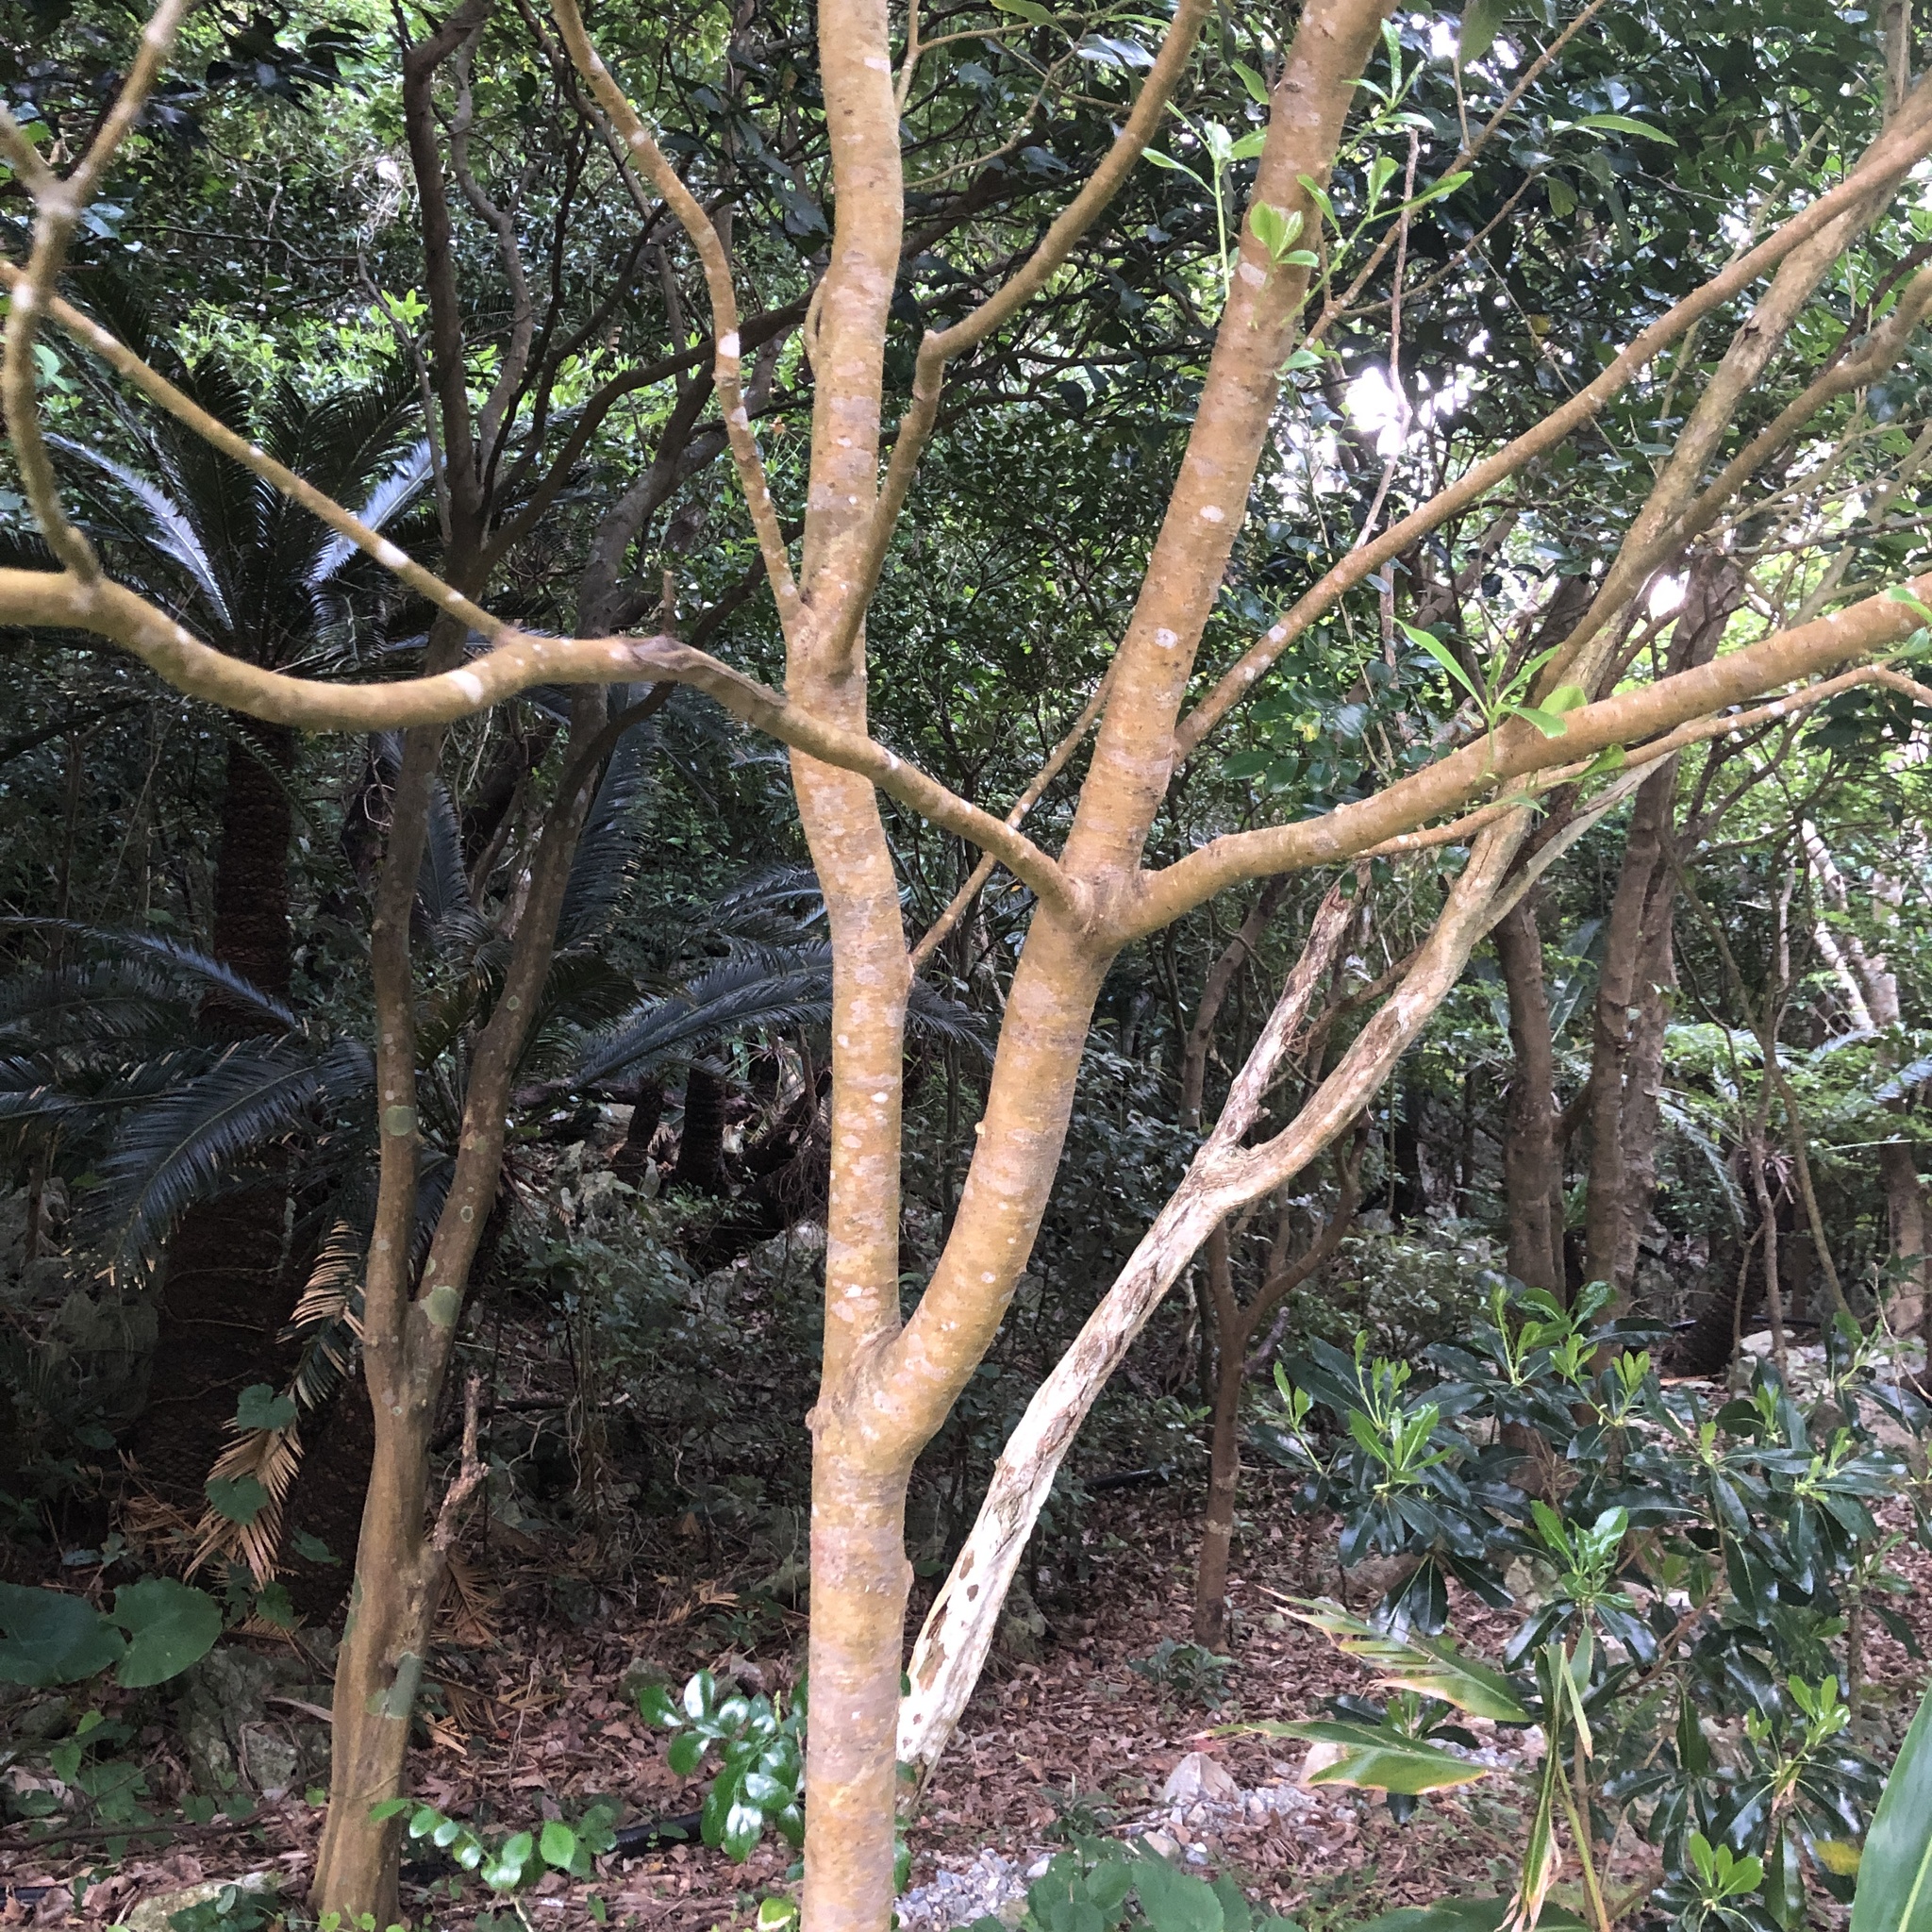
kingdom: Plantae
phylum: Tracheophyta
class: Magnoliopsida
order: Apiales
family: Pittosporaceae
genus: Pittosporum
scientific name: Pittosporum tobira
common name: Japanese cheesewood
